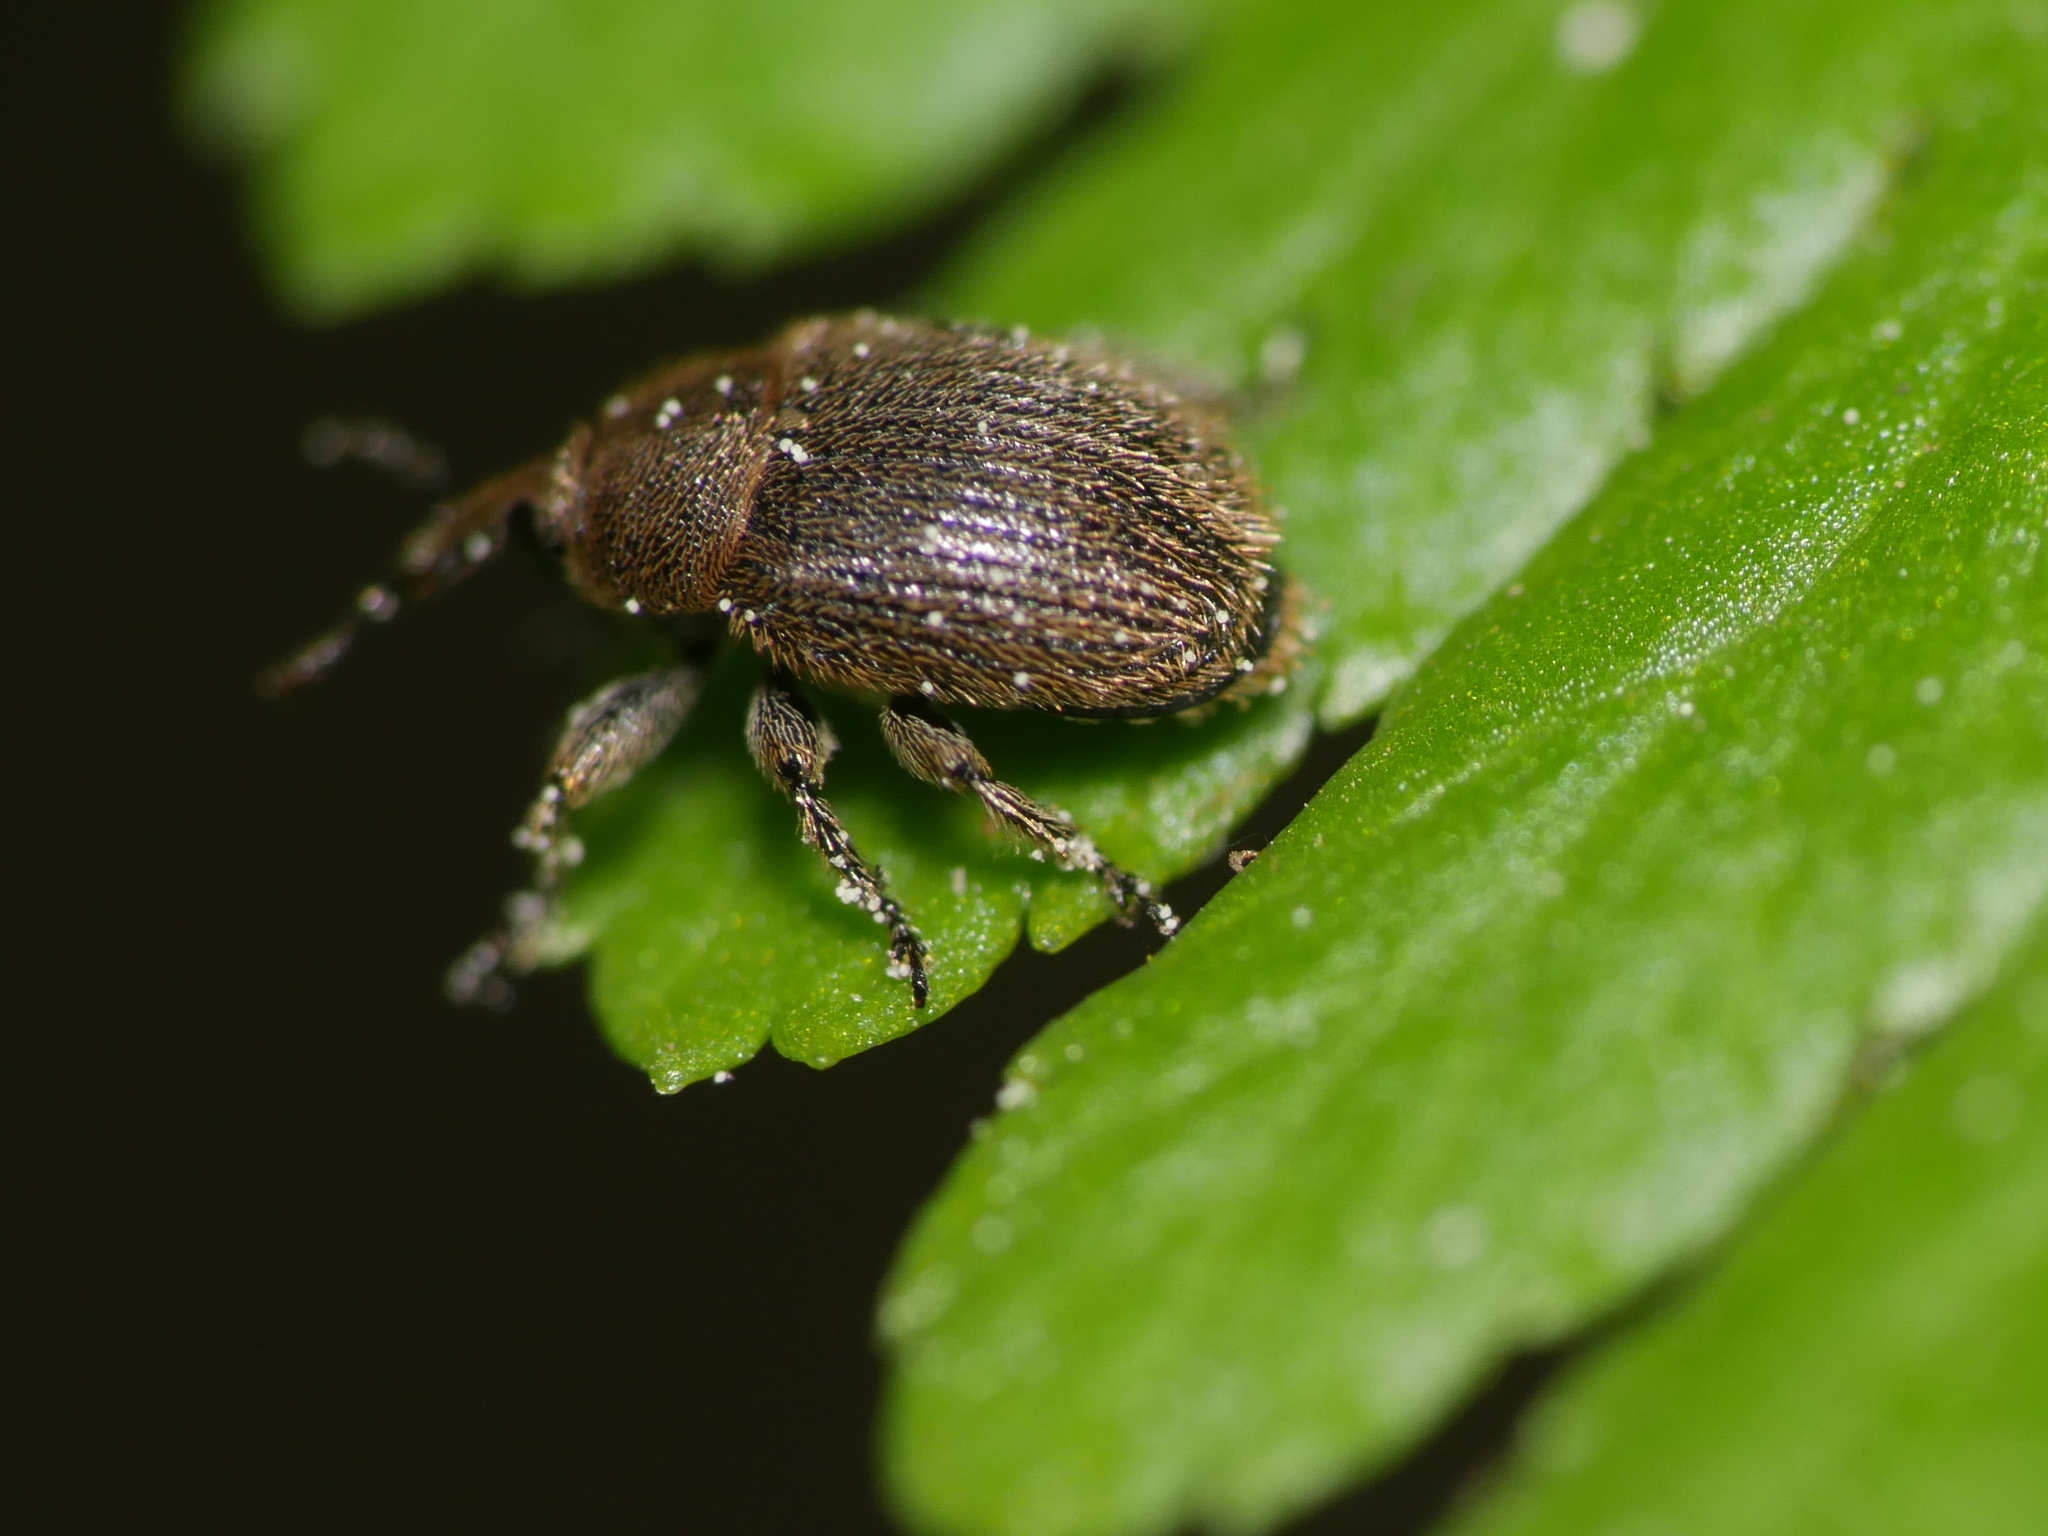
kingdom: Animalia
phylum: Arthropoda
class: Insecta
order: Coleoptera
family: Curculionidae
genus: Rhinusa
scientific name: Rhinusa
